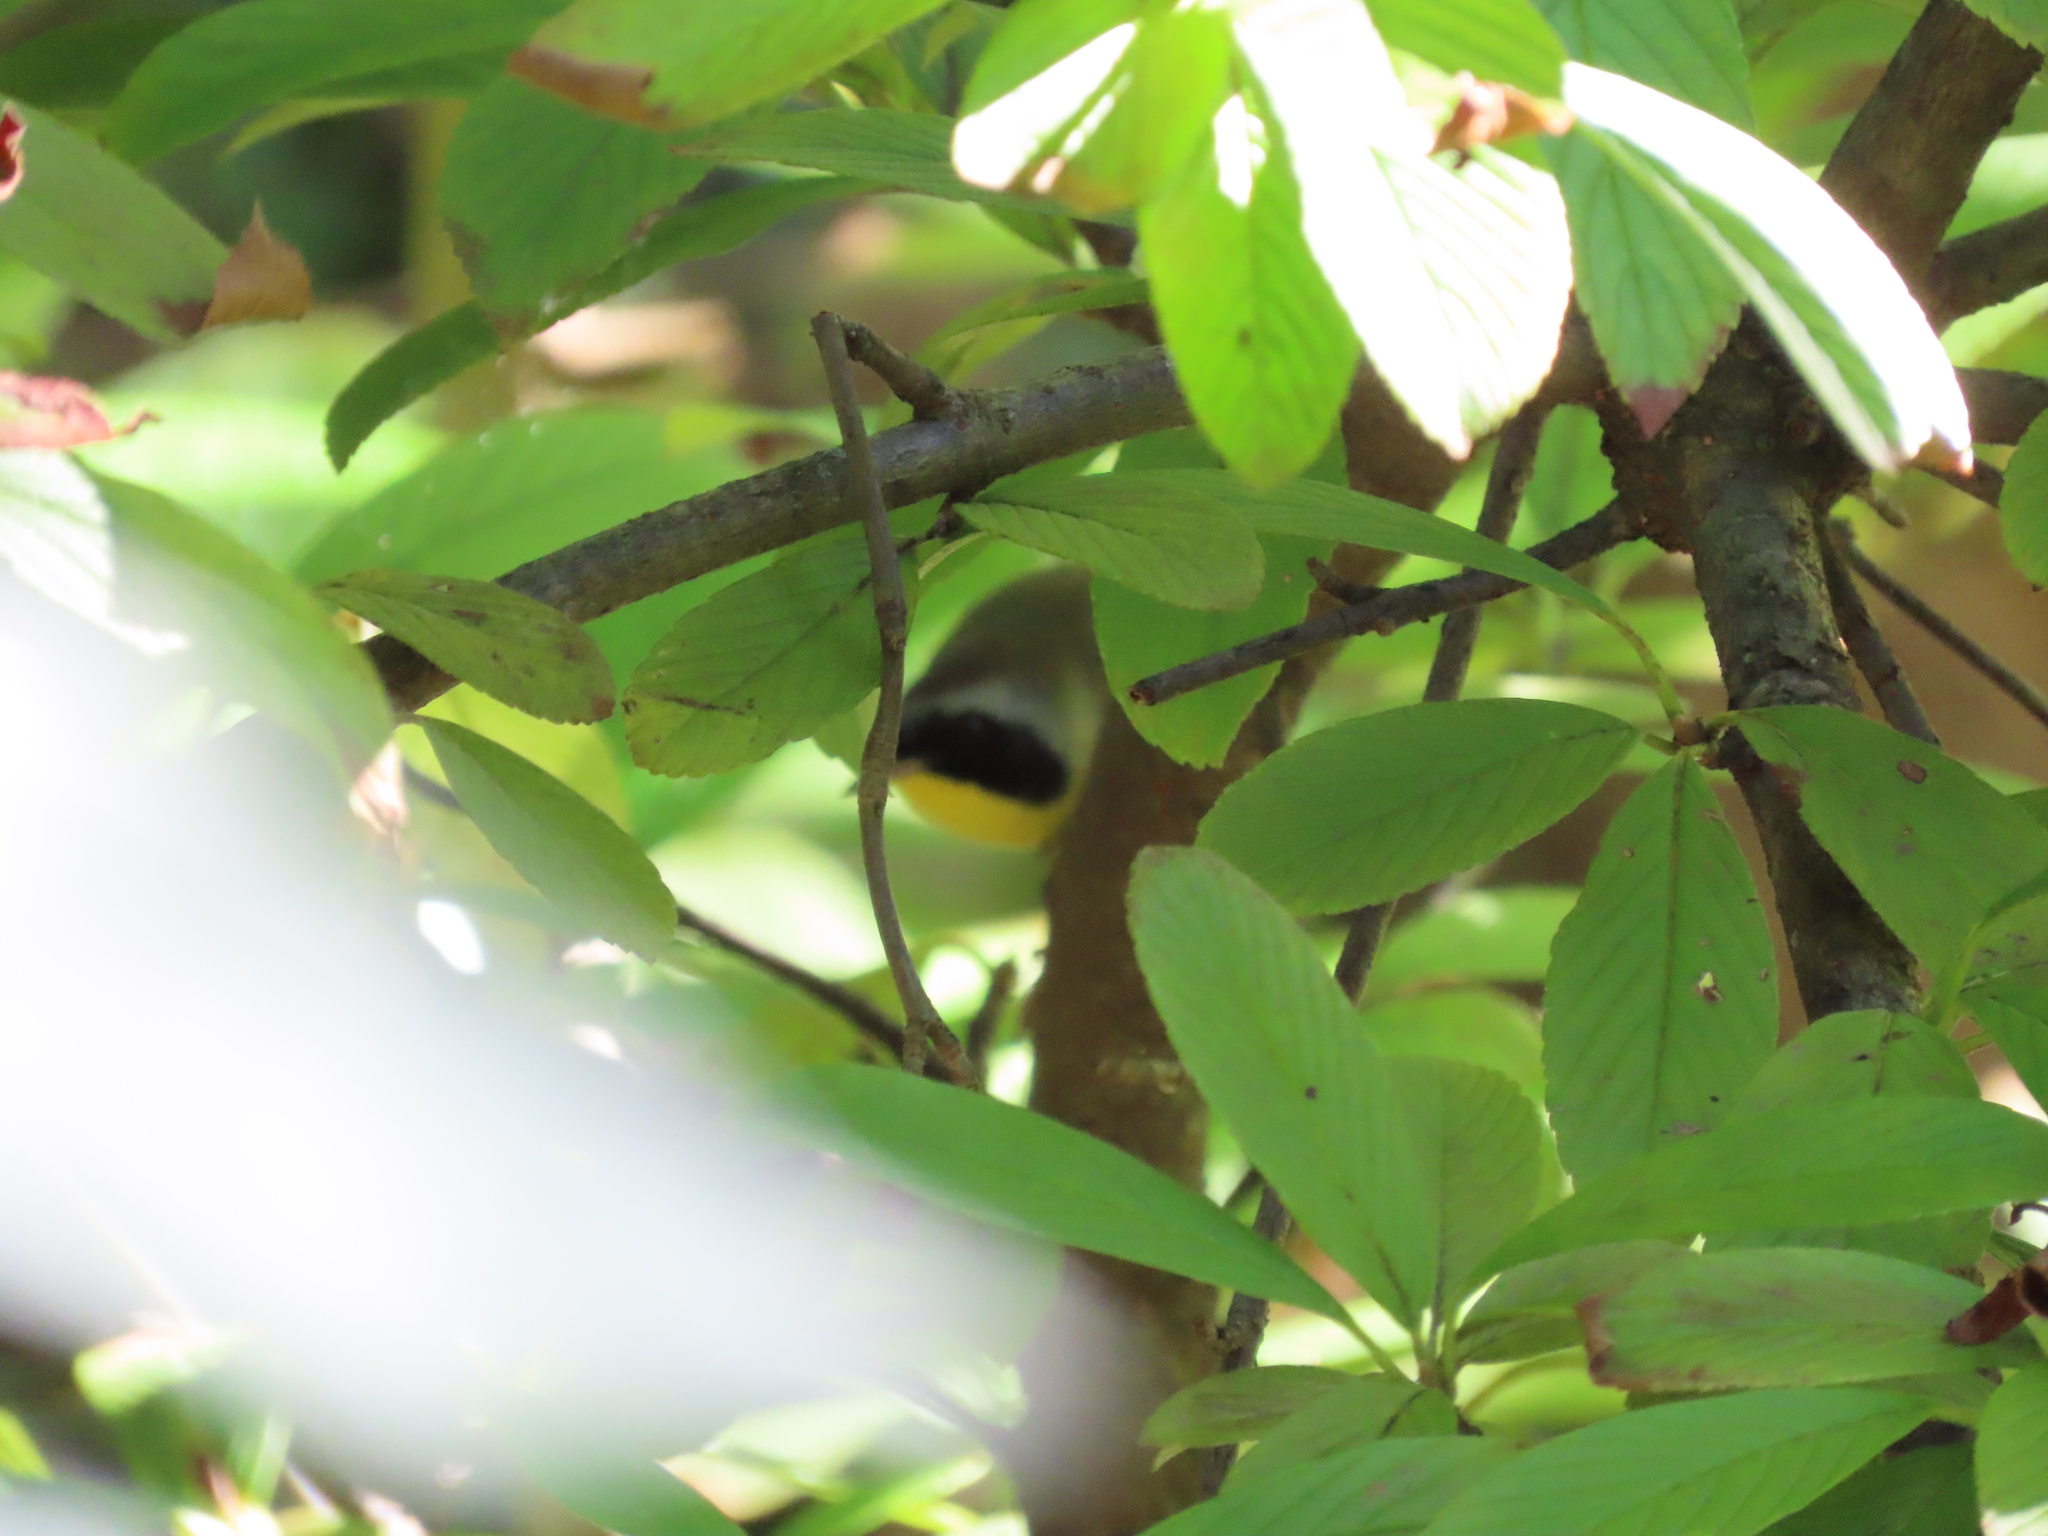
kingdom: Animalia
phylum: Chordata
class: Aves
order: Passeriformes
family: Parulidae
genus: Geothlypis
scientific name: Geothlypis trichas
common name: Common yellowthroat
